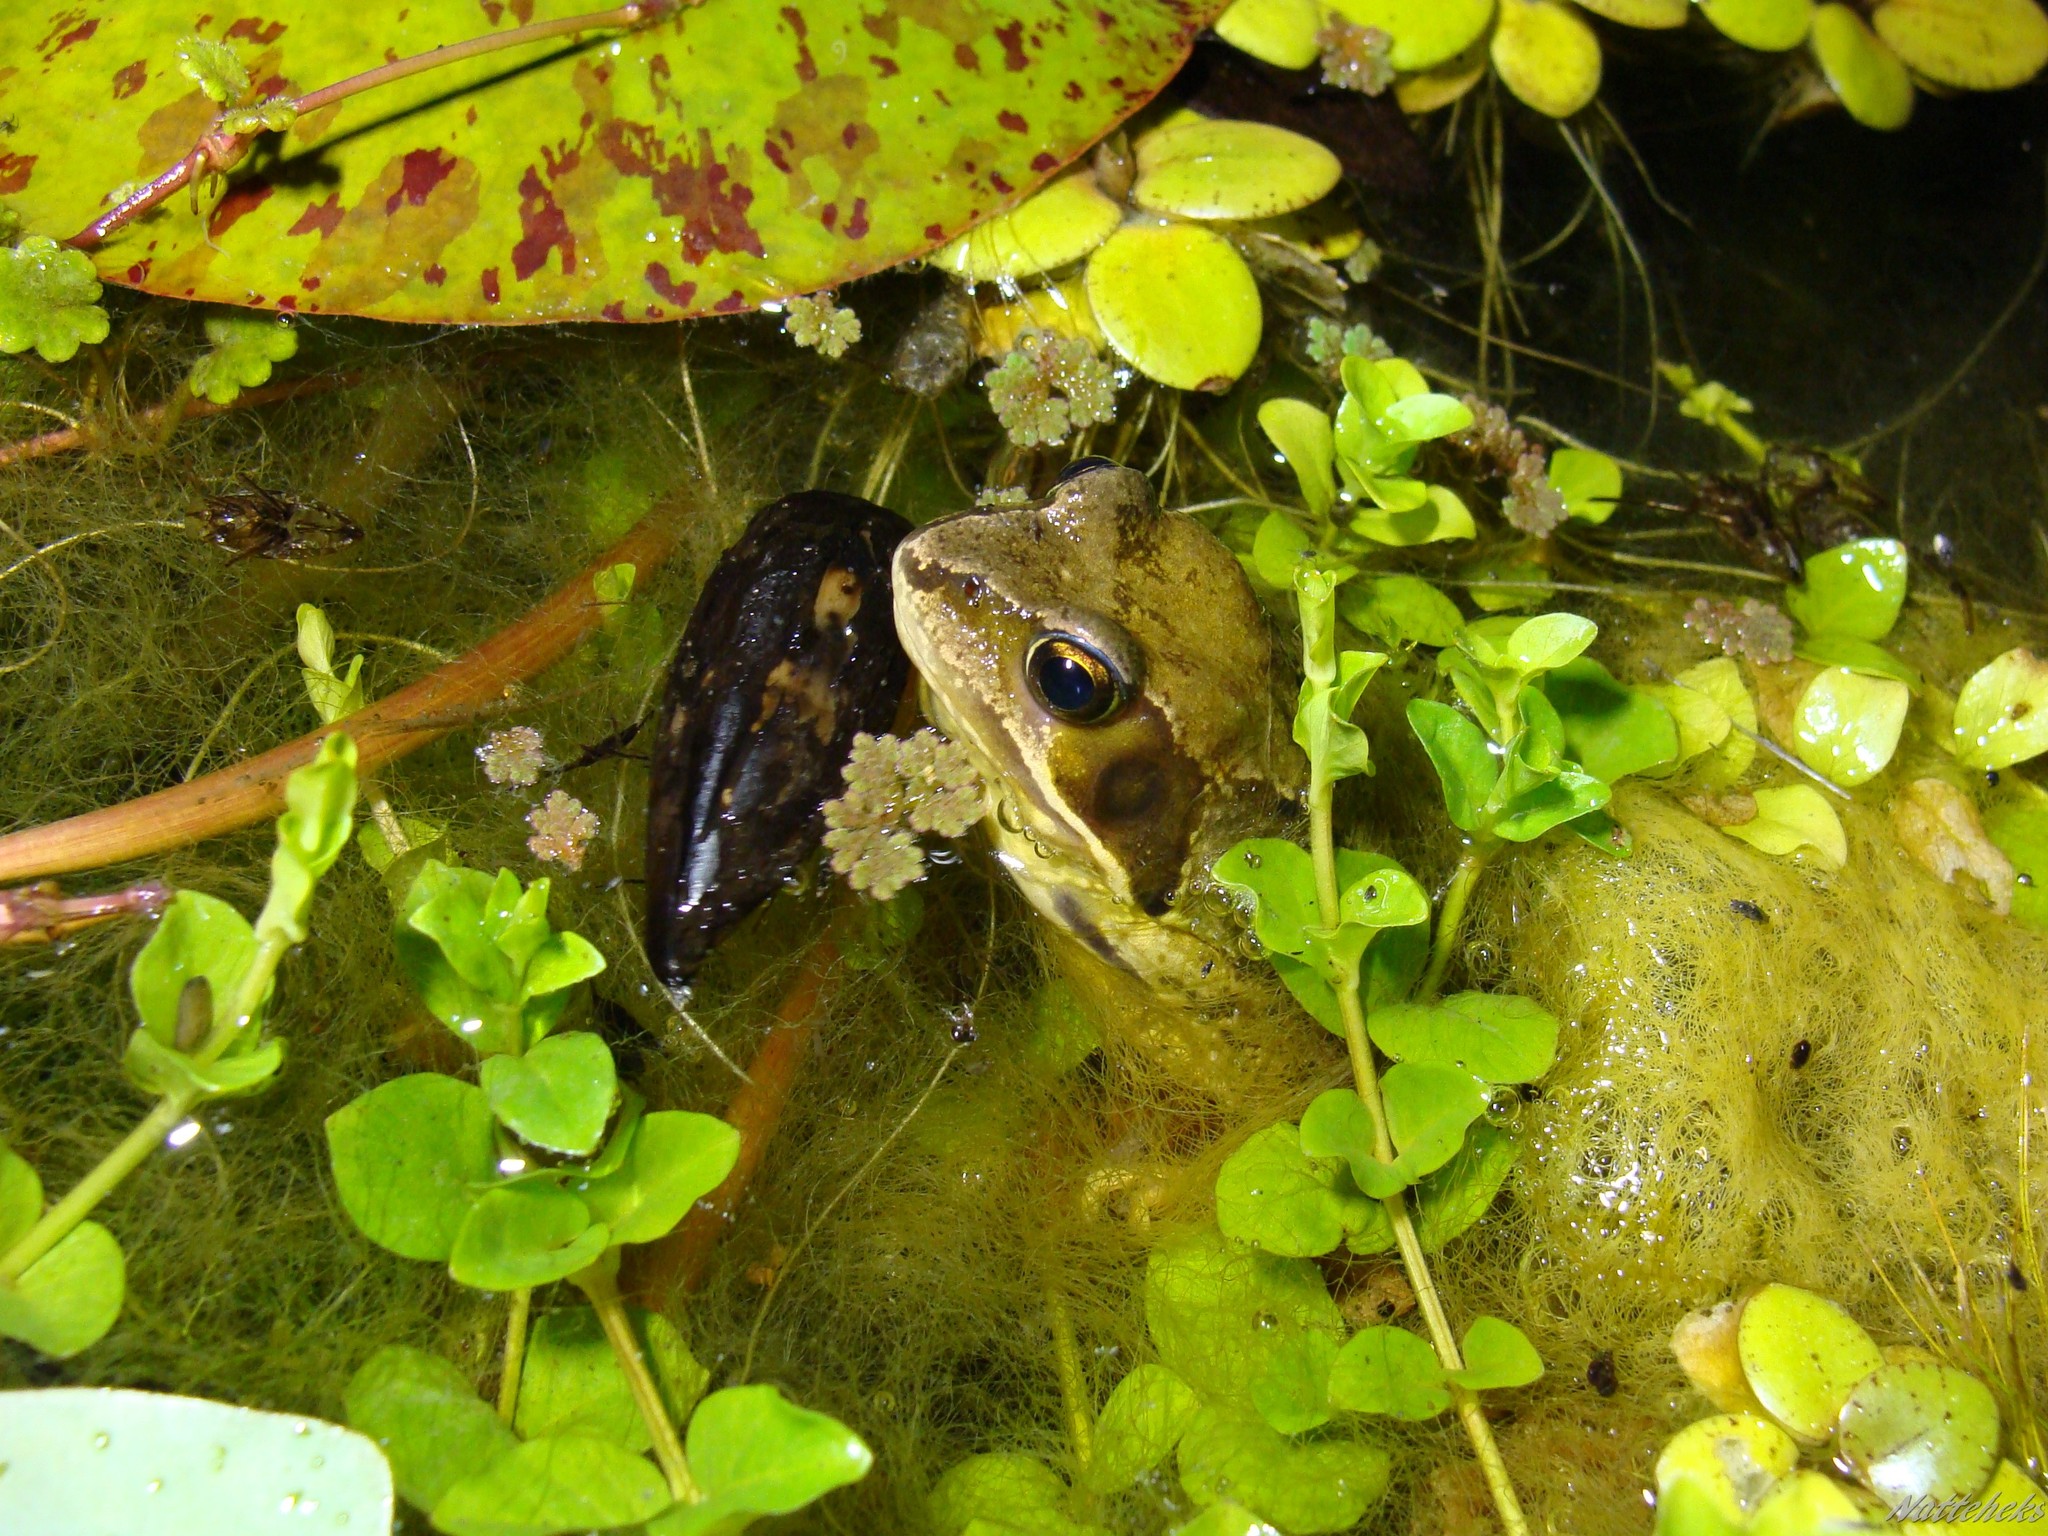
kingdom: Animalia
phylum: Chordata
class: Amphibia
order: Anura
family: Ranidae
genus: Rana
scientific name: Rana temporaria
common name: Common frog
